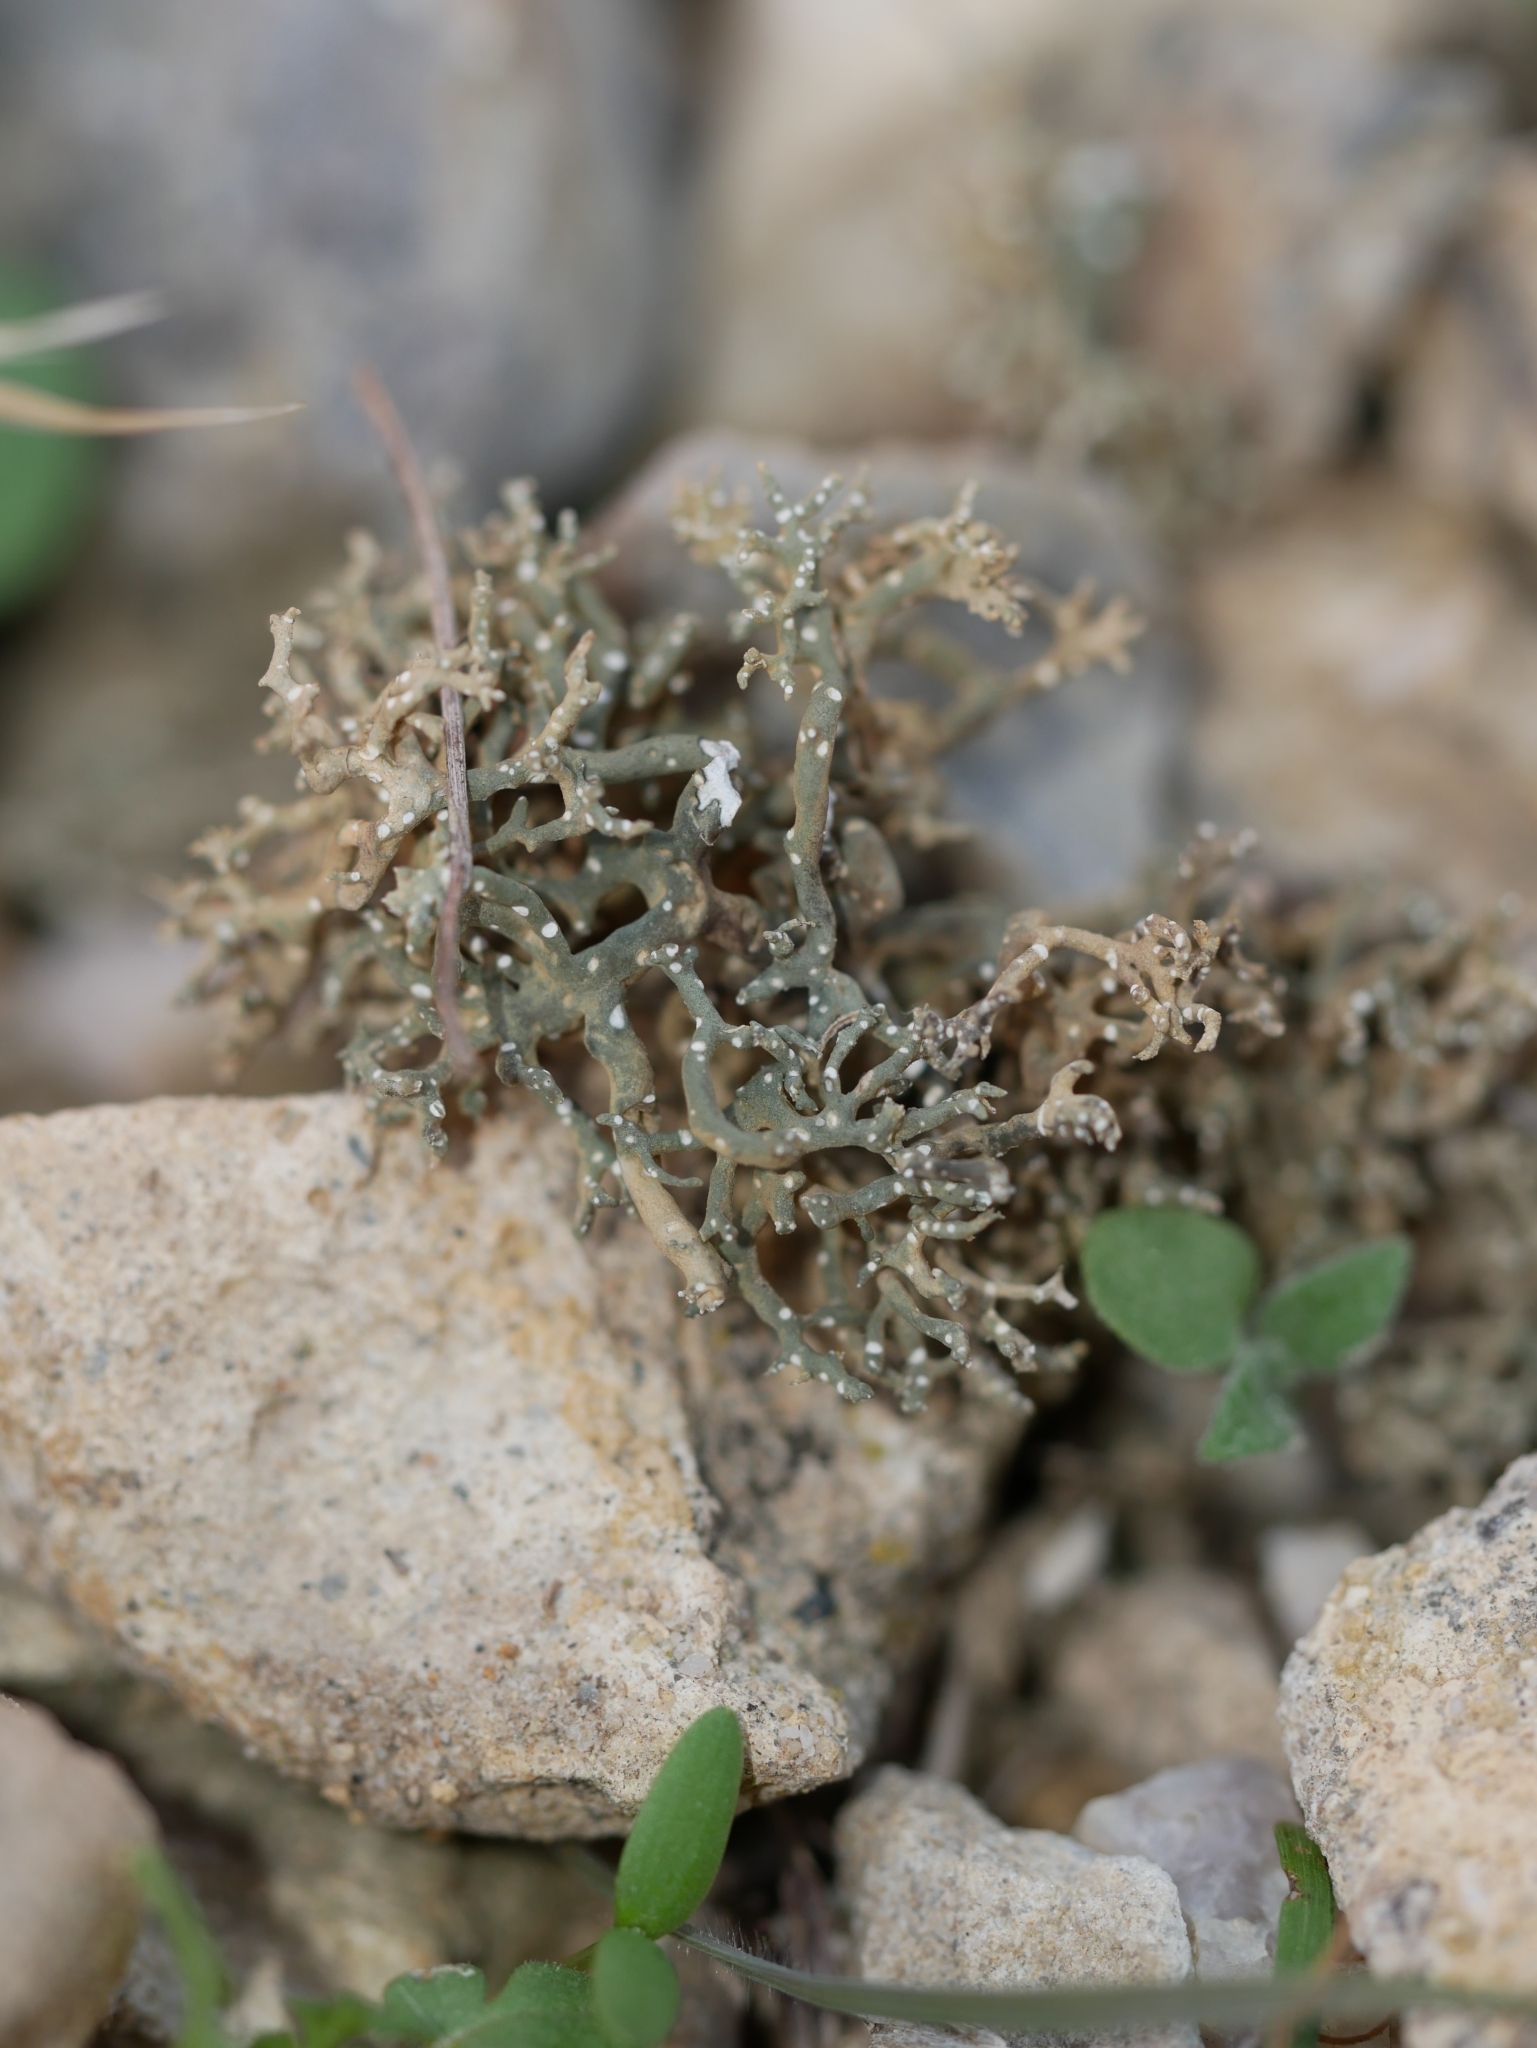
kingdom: Fungi
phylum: Ascomycota
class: Lecanoromycetes
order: Pertusariales
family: Megasporaceae
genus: Circinaria
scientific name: Circinaria hispida
